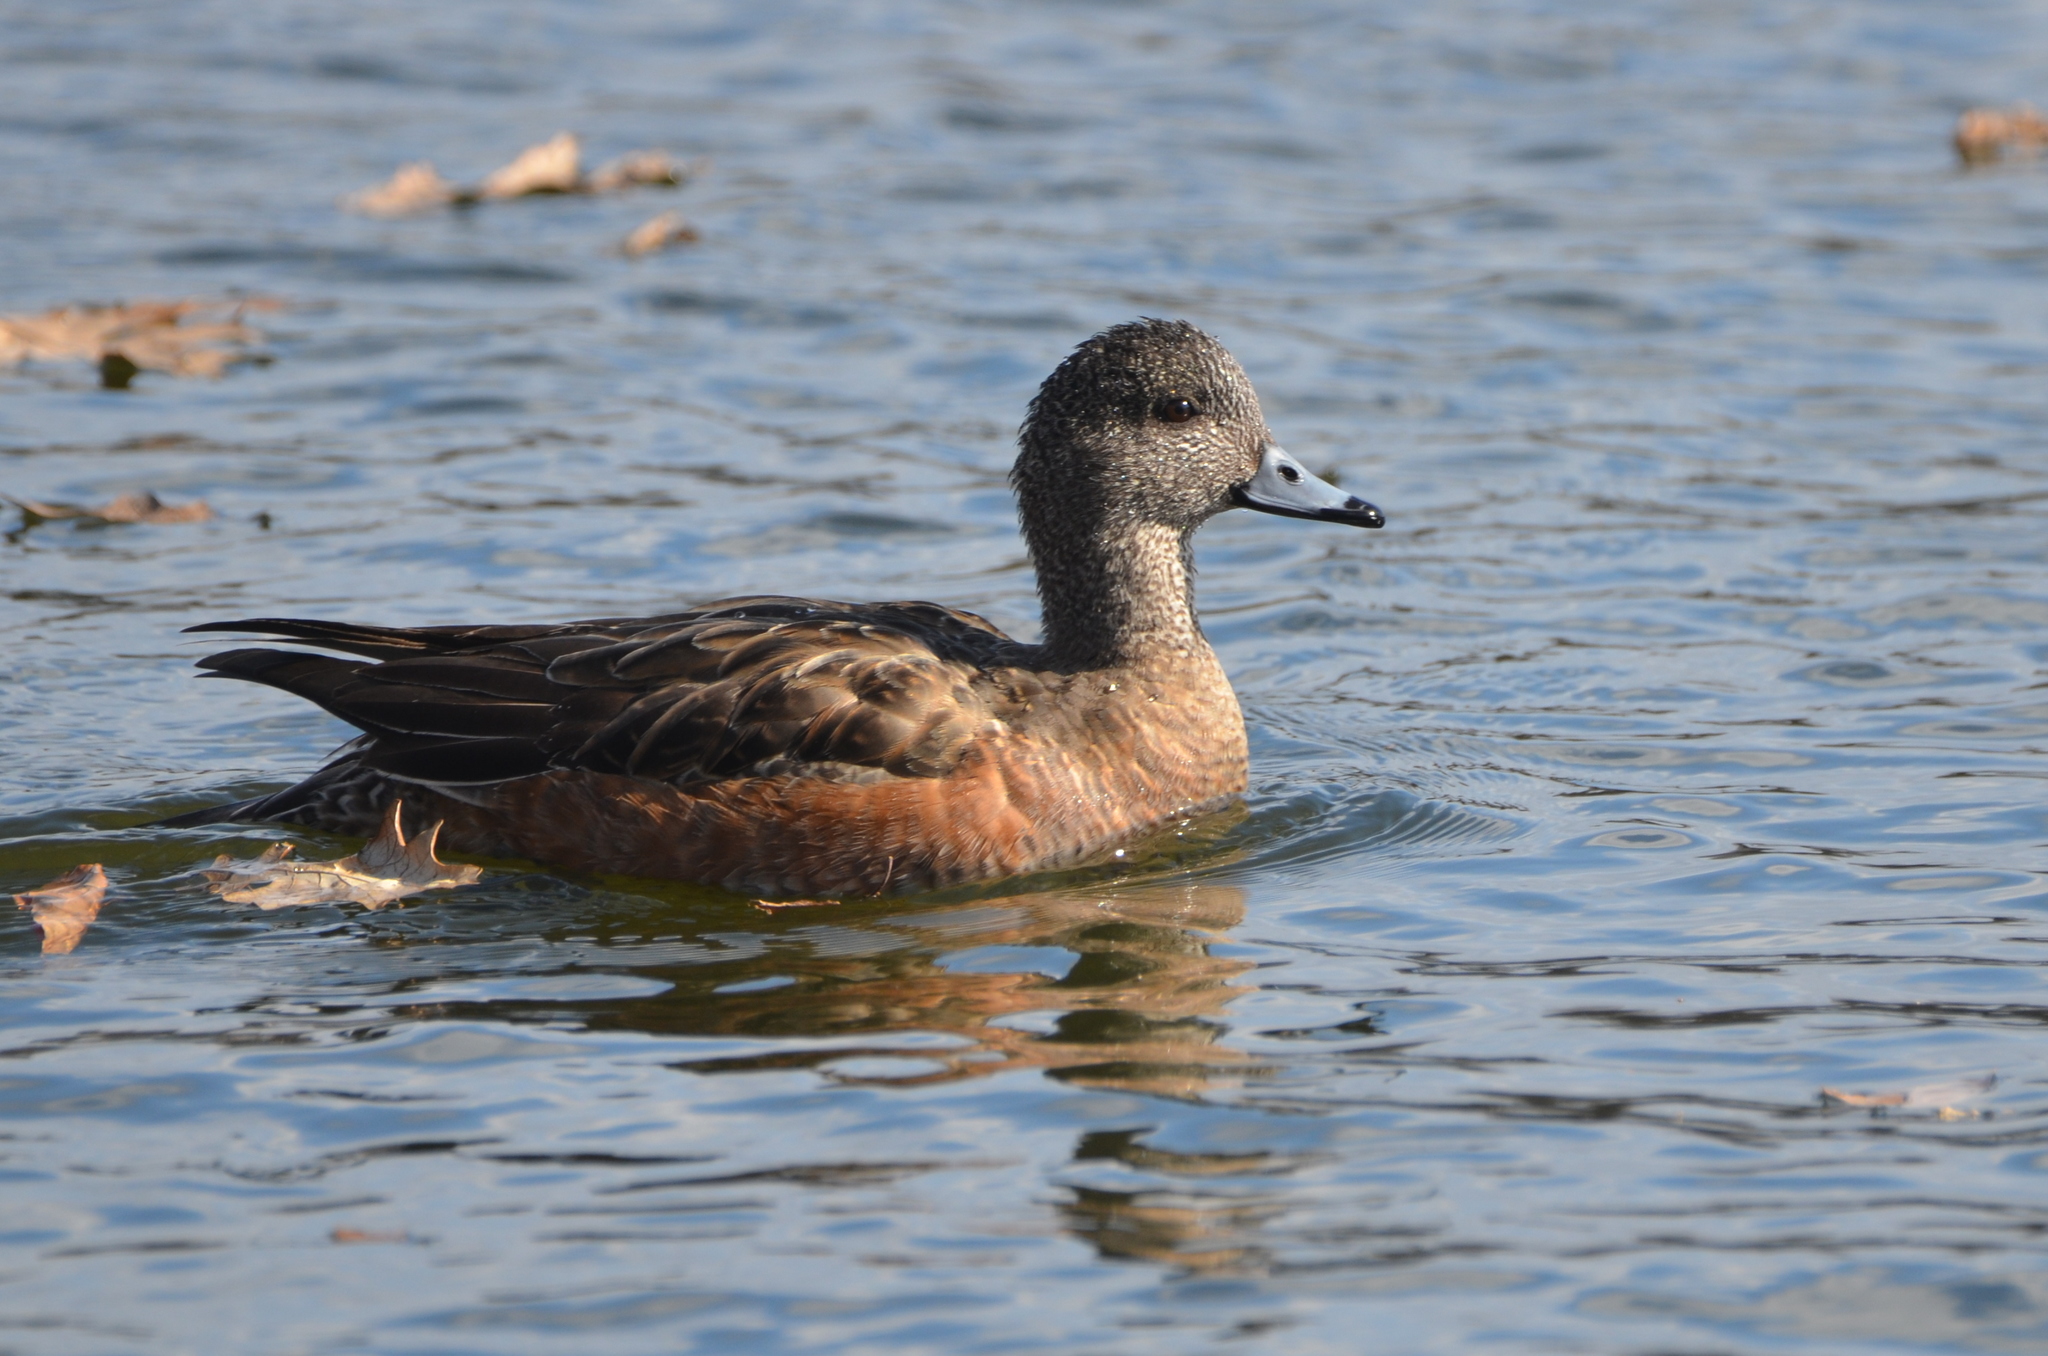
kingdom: Animalia
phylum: Chordata
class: Aves
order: Anseriformes
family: Anatidae
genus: Mareca
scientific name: Mareca americana
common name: American wigeon
